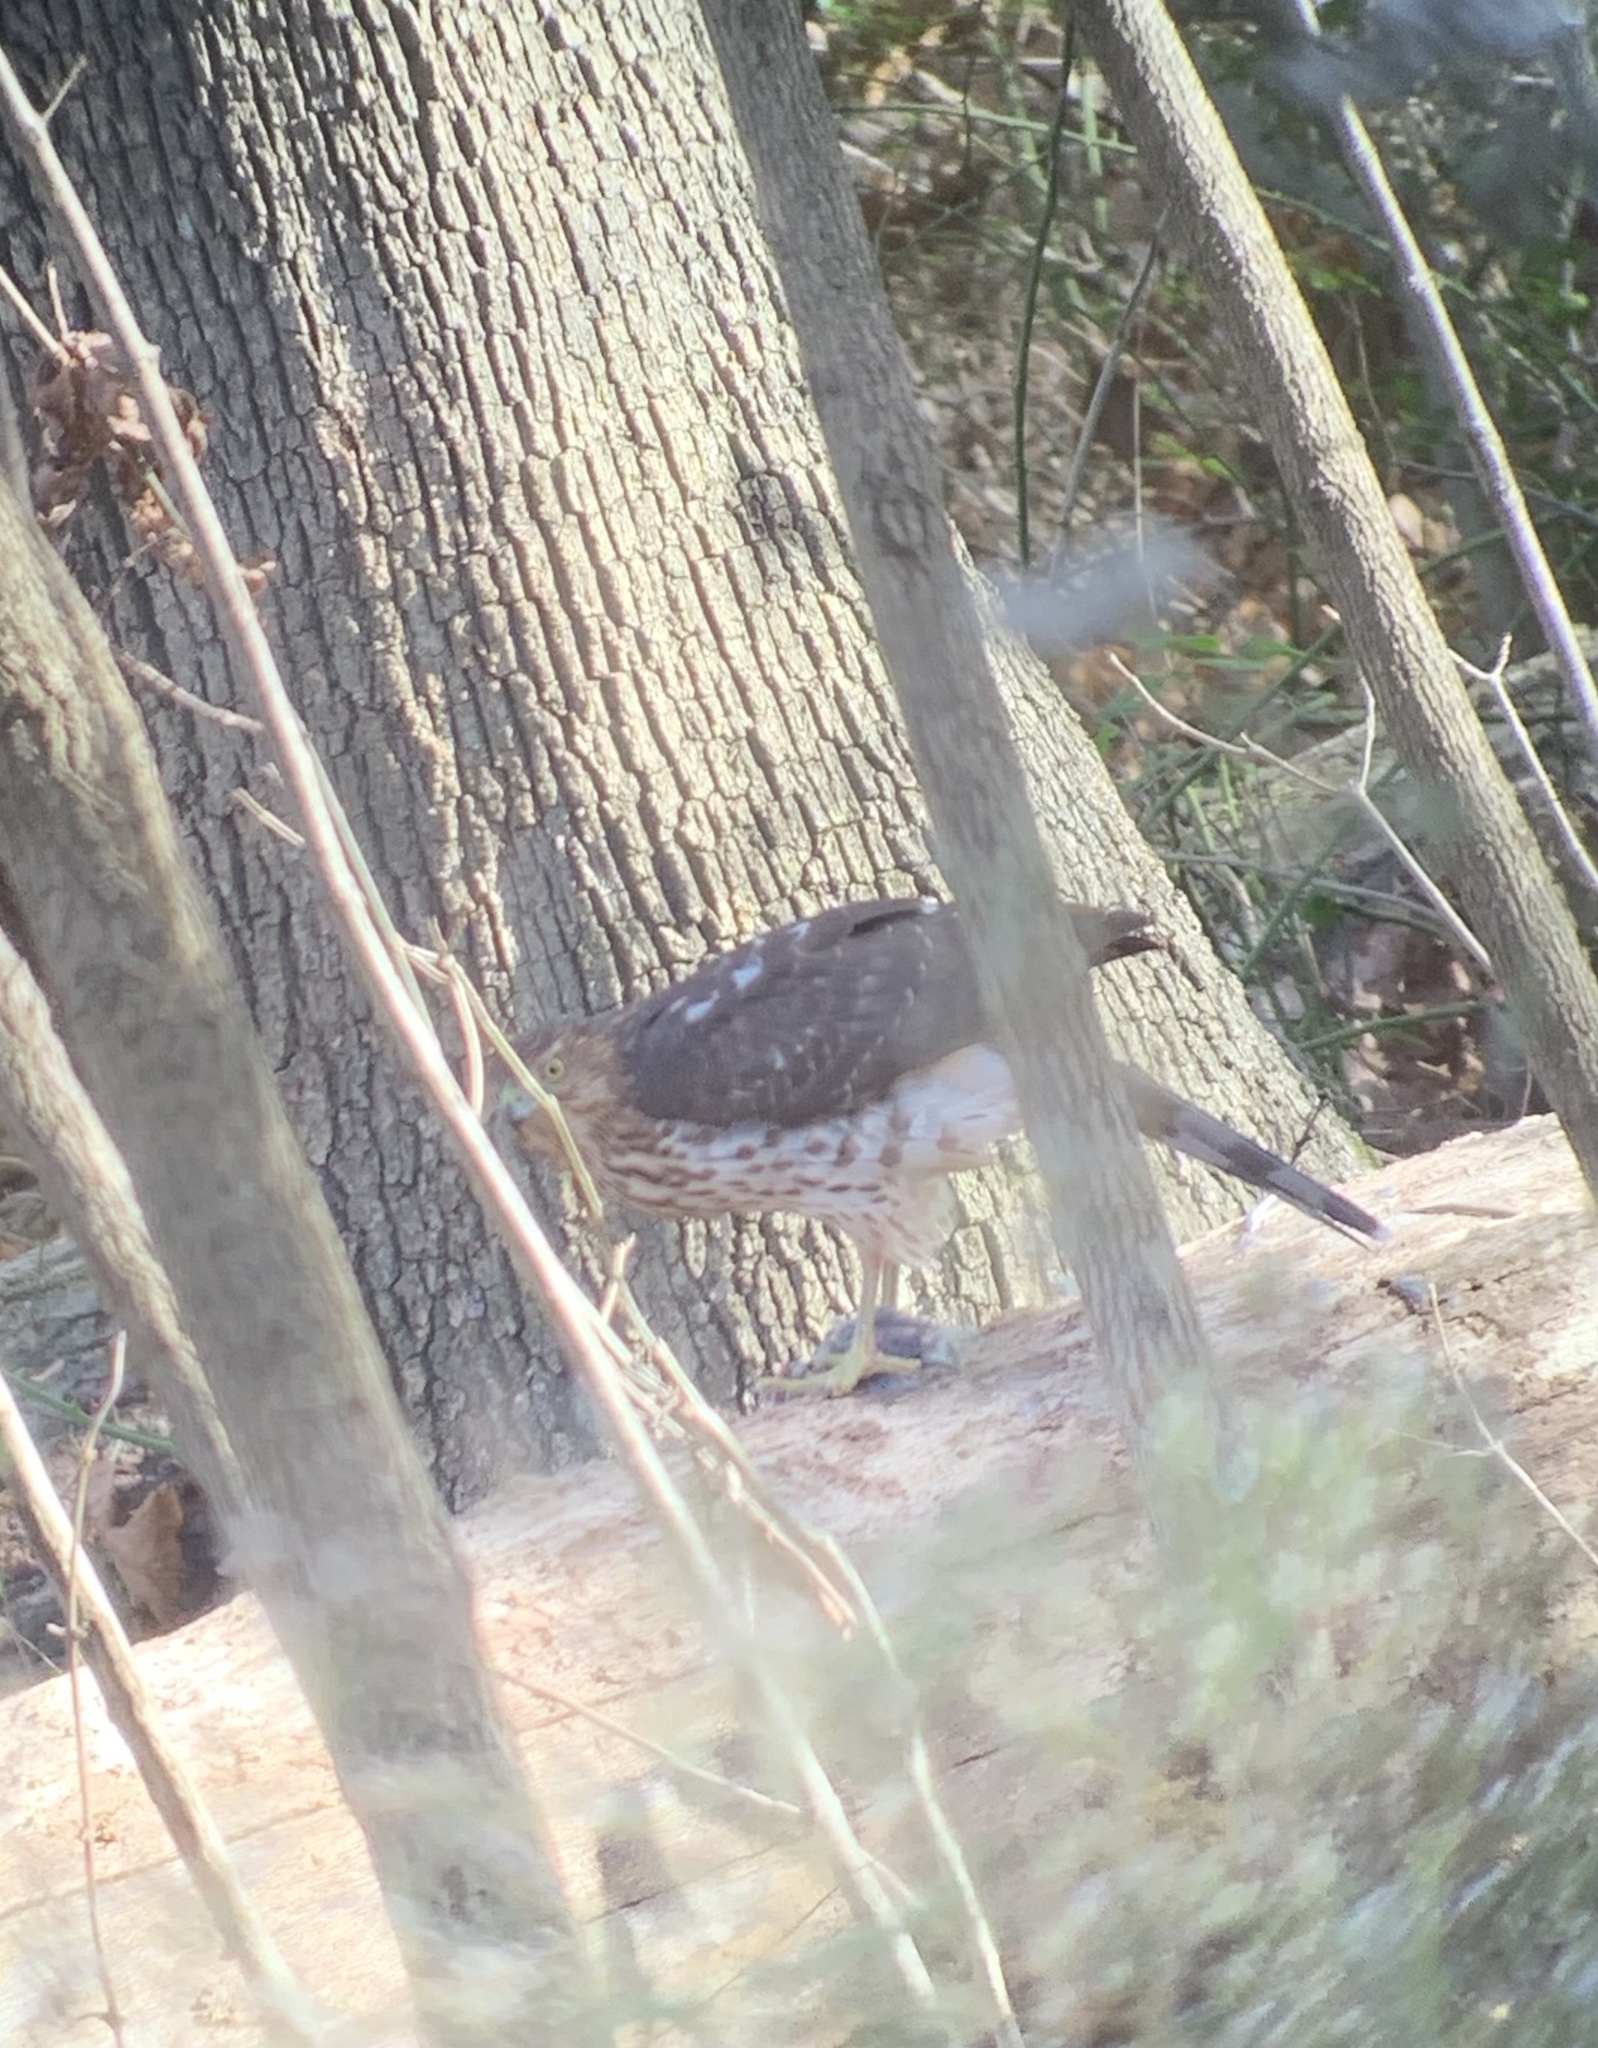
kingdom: Animalia
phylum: Chordata
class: Aves
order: Accipitriformes
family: Accipitridae
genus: Accipiter
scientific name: Accipiter cooperii
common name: Cooper's hawk
